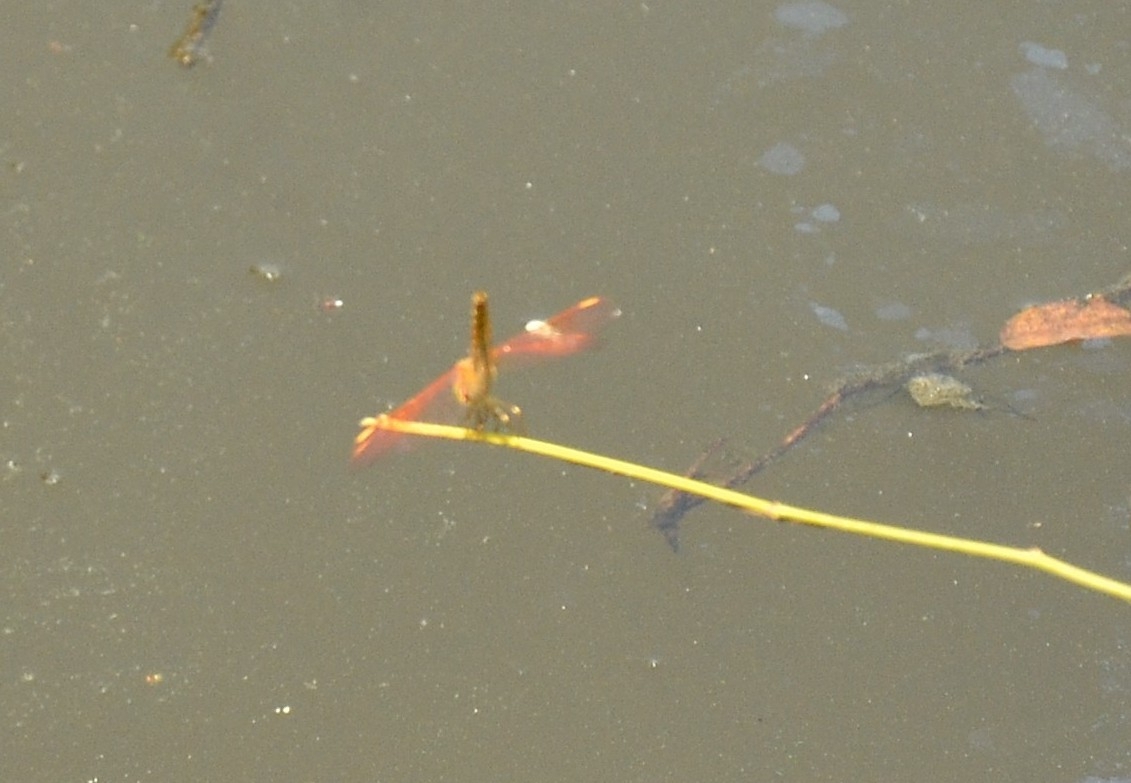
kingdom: Animalia
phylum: Arthropoda
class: Insecta
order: Odonata
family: Libellulidae
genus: Brachythemis
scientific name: Brachythemis contaminata
